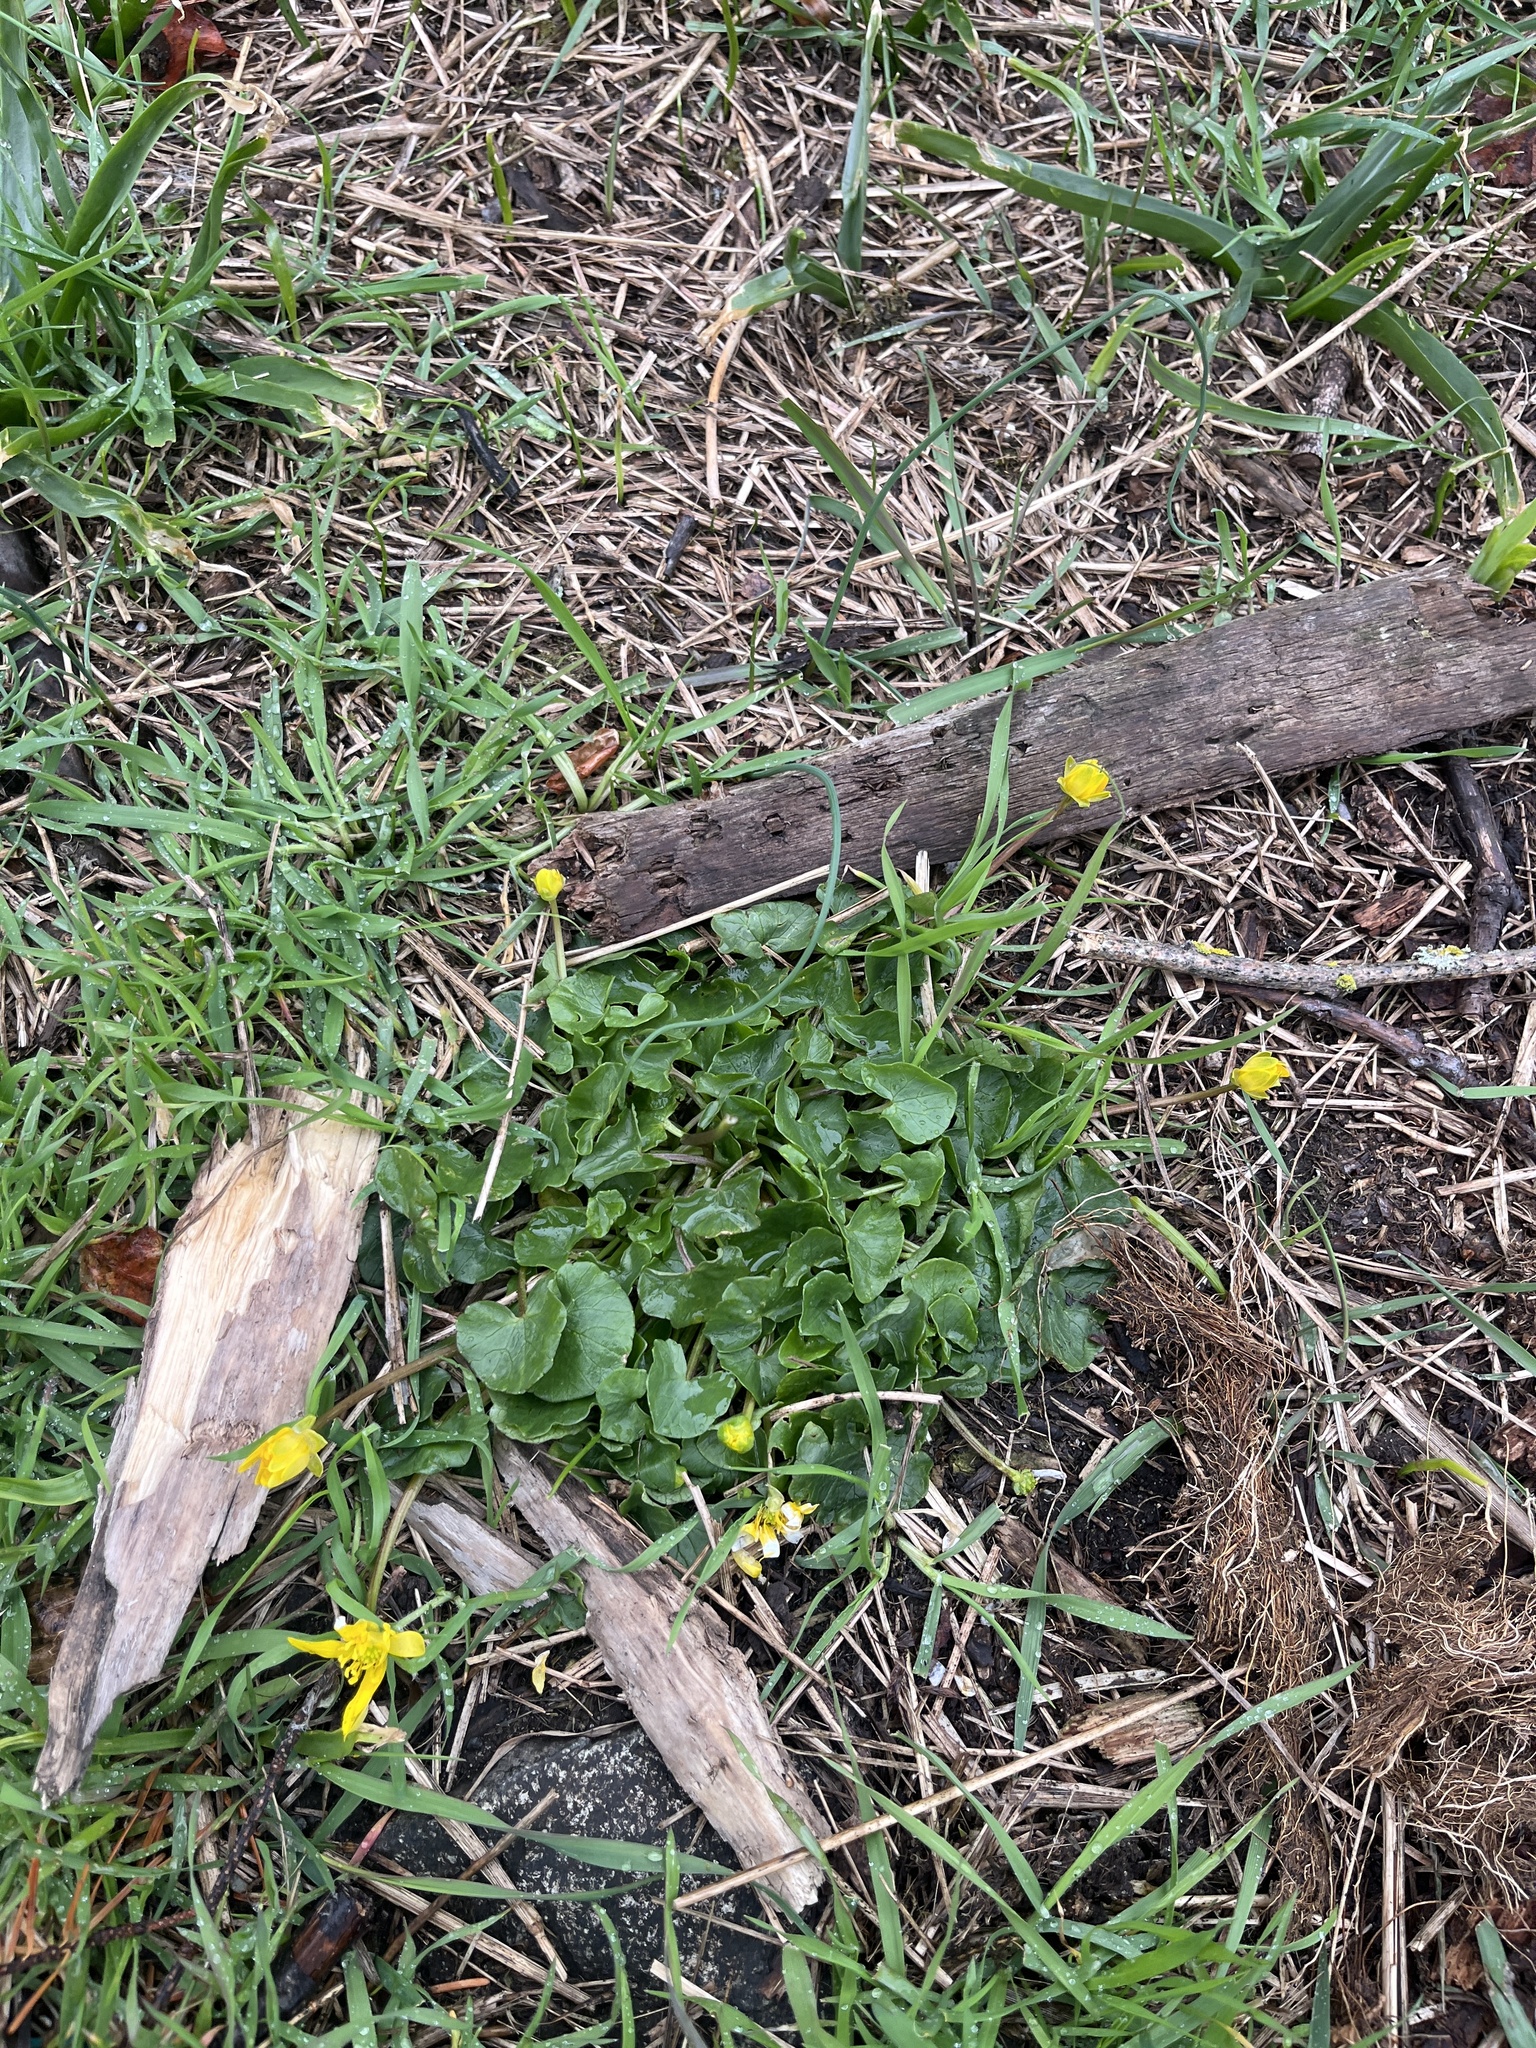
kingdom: Plantae
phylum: Tracheophyta
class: Magnoliopsida
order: Ranunculales
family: Ranunculaceae
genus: Ficaria
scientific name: Ficaria verna
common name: Lesser celandine
